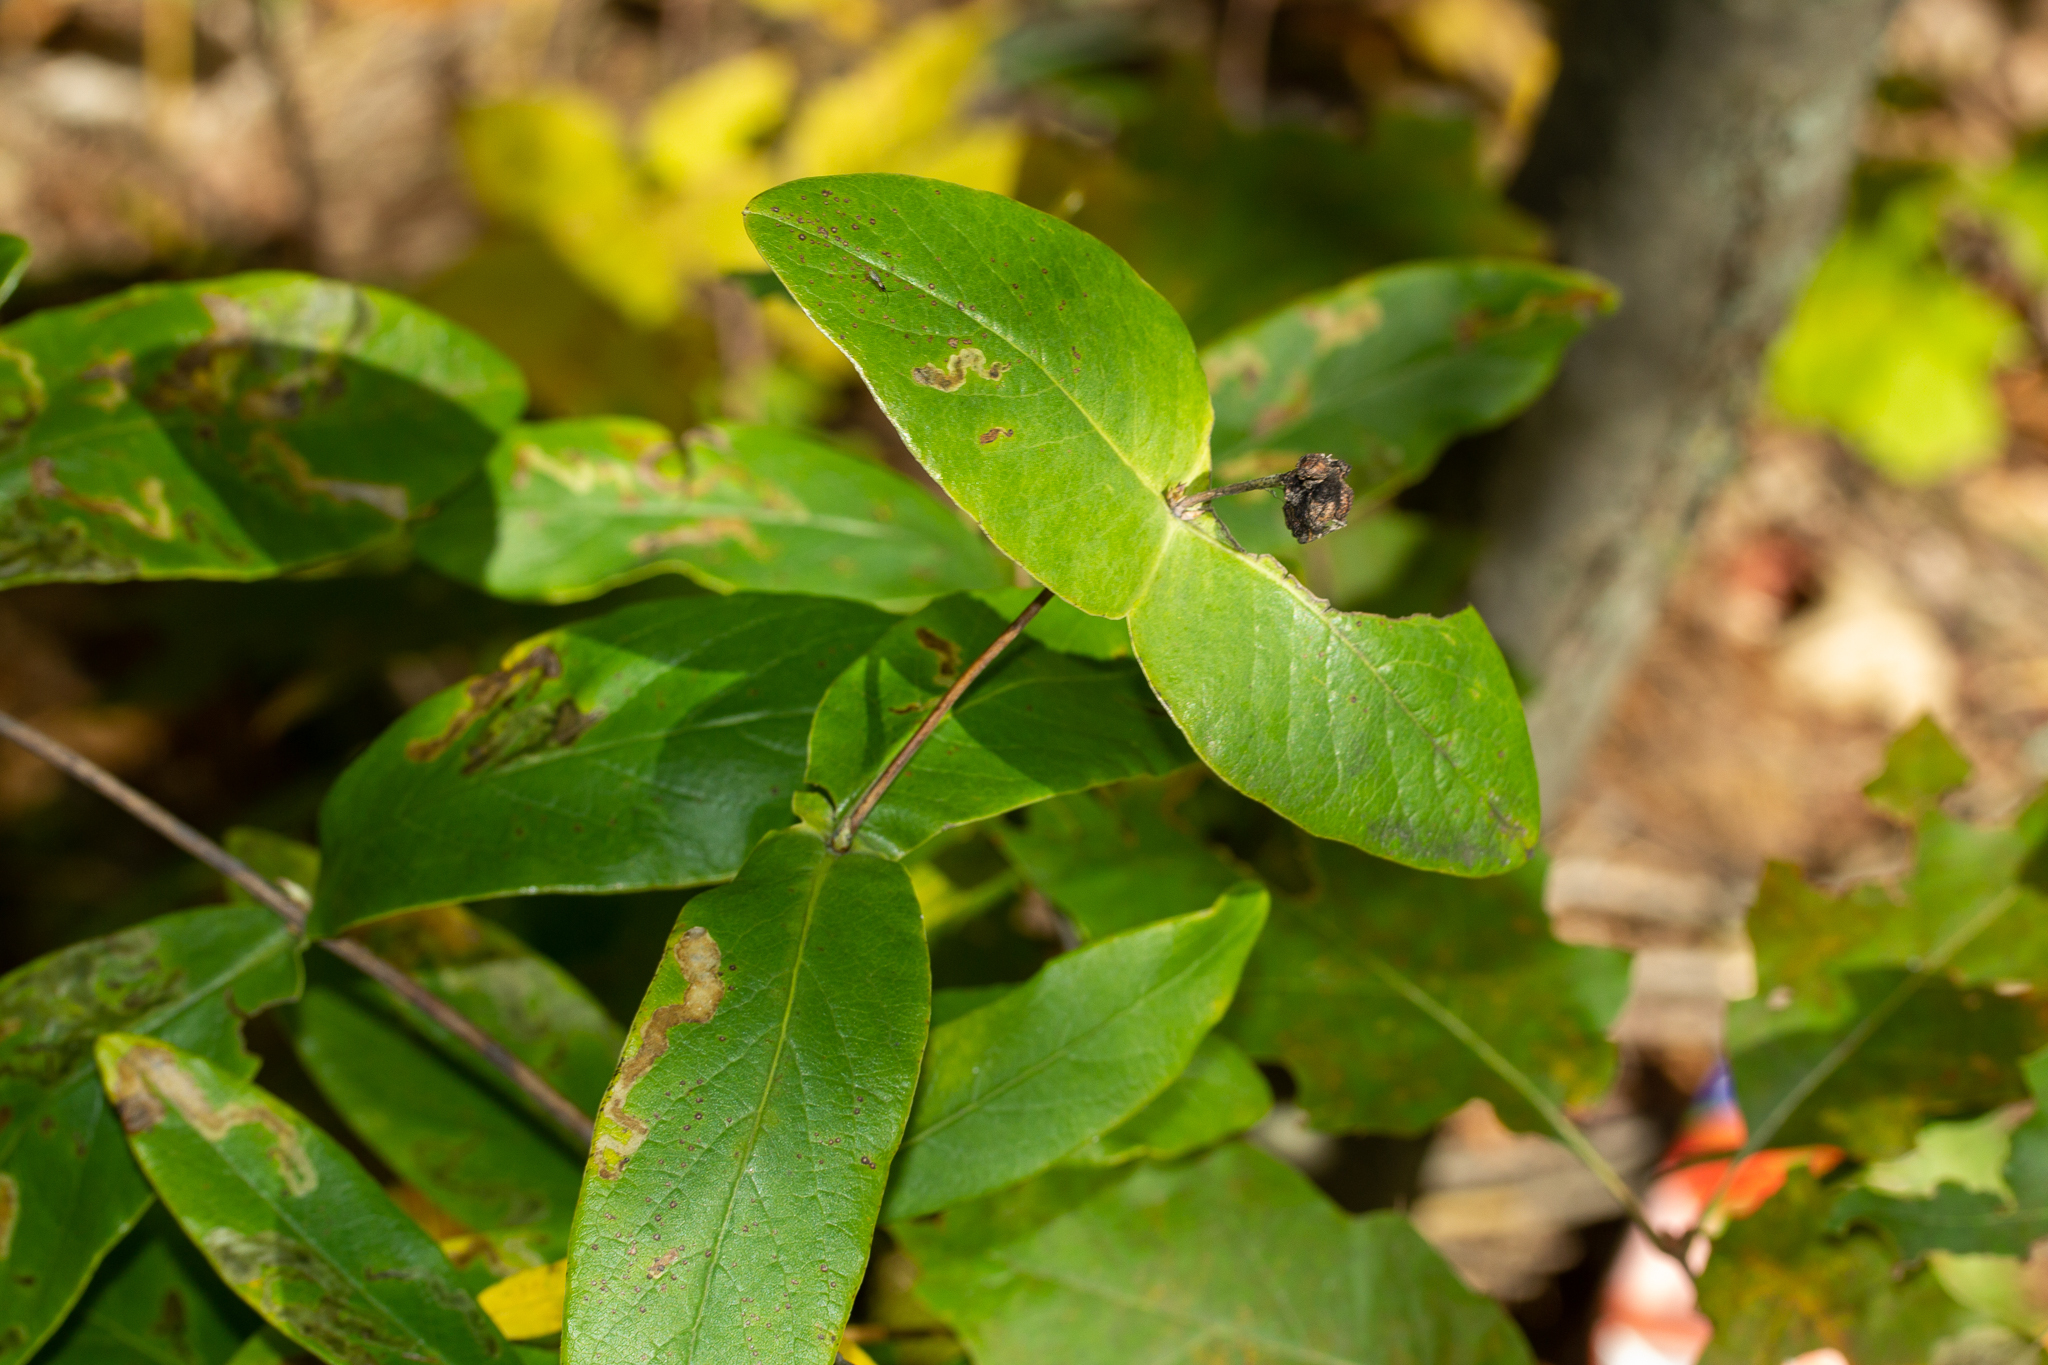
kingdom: Plantae
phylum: Tracheophyta
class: Magnoliopsida
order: Dipsacales
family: Caprifoliaceae
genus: Lonicera
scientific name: Lonicera dioica
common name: Limber honeysuckle
